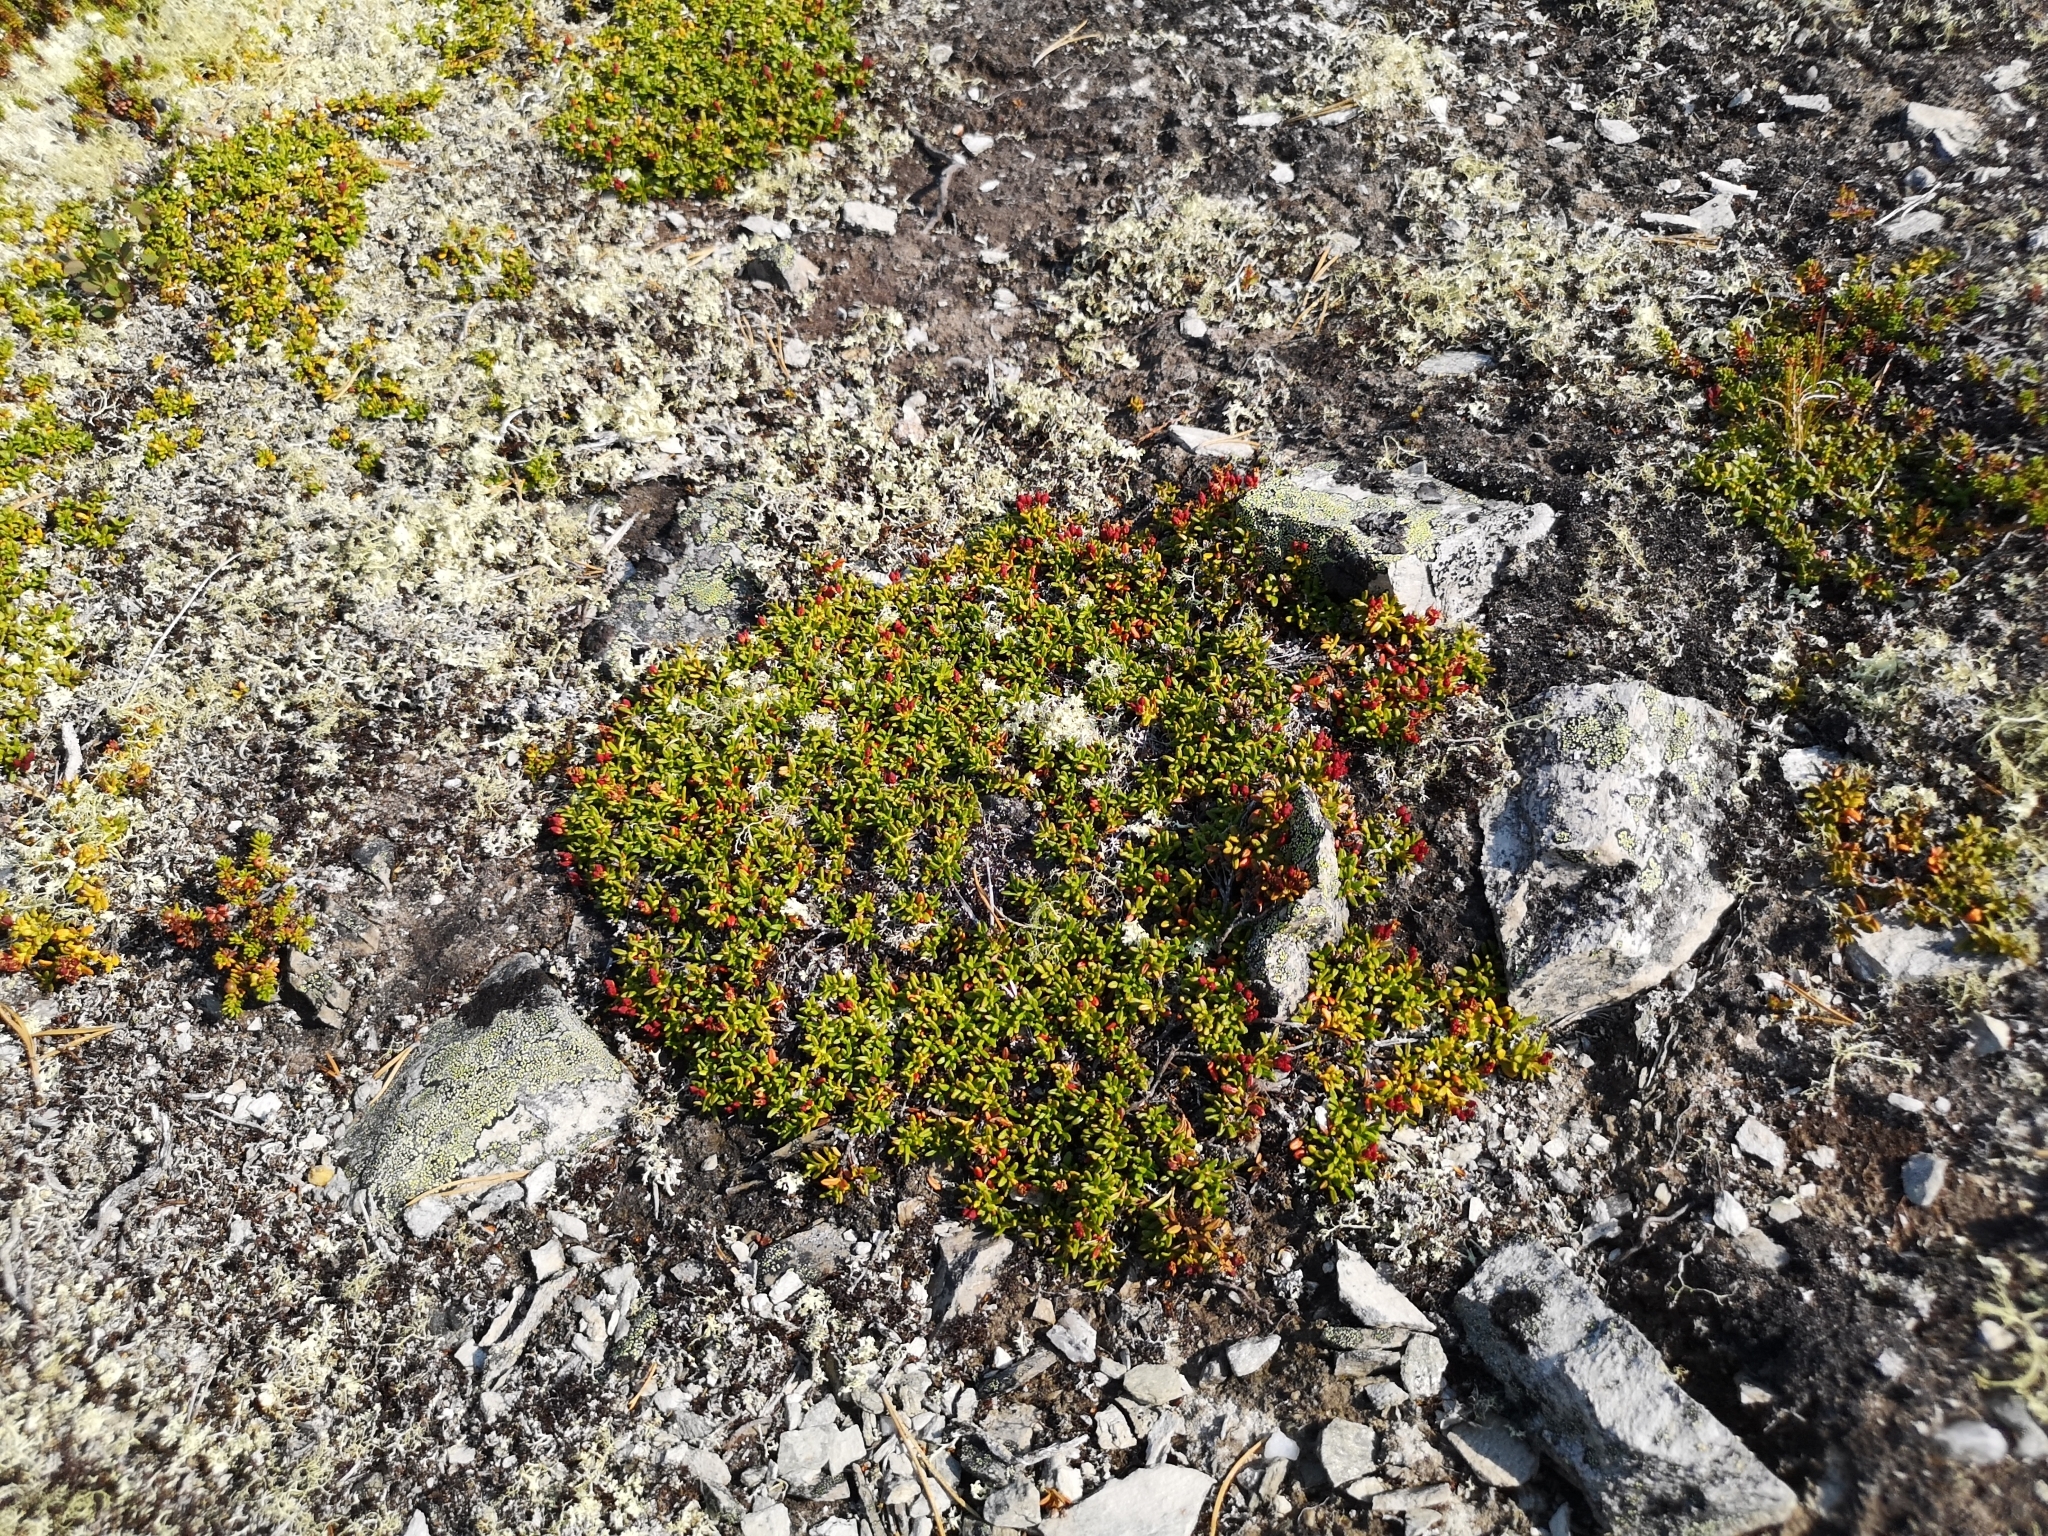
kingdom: Plantae
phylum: Tracheophyta
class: Magnoliopsida
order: Ericales
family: Ericaceae
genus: Kalmia
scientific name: Kalmia procumbens
